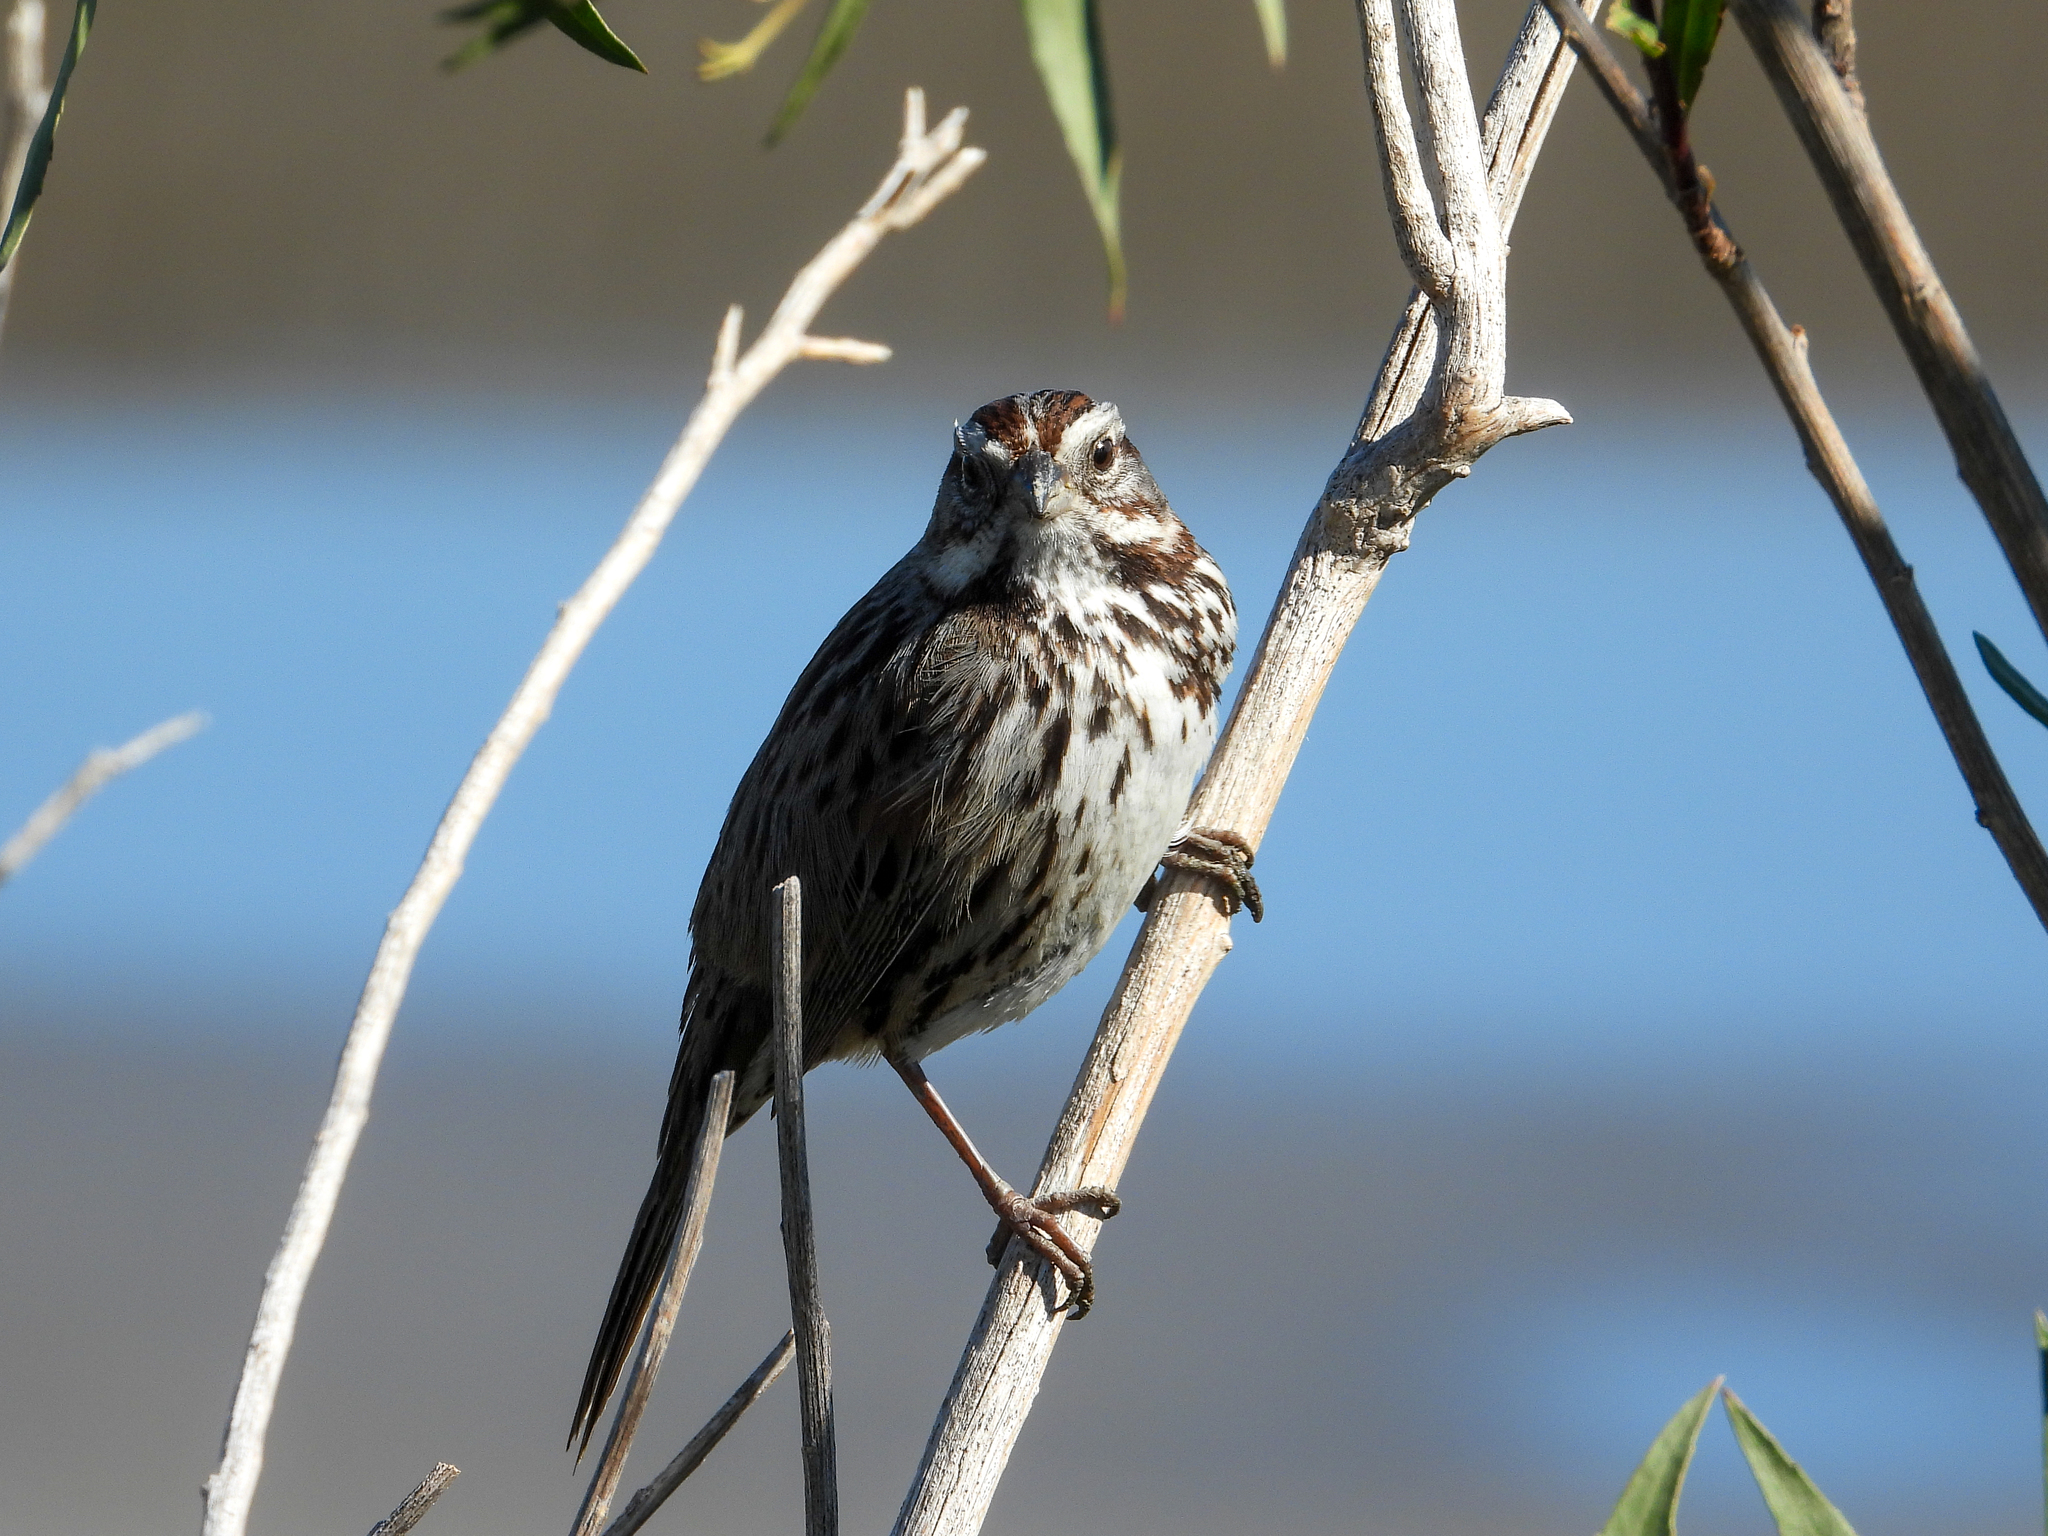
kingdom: Animalia
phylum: Chordata
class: Aves
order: Passeriformes
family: Passerellidae
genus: Melospiza
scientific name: Melospiza melodia
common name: Song sparrow
